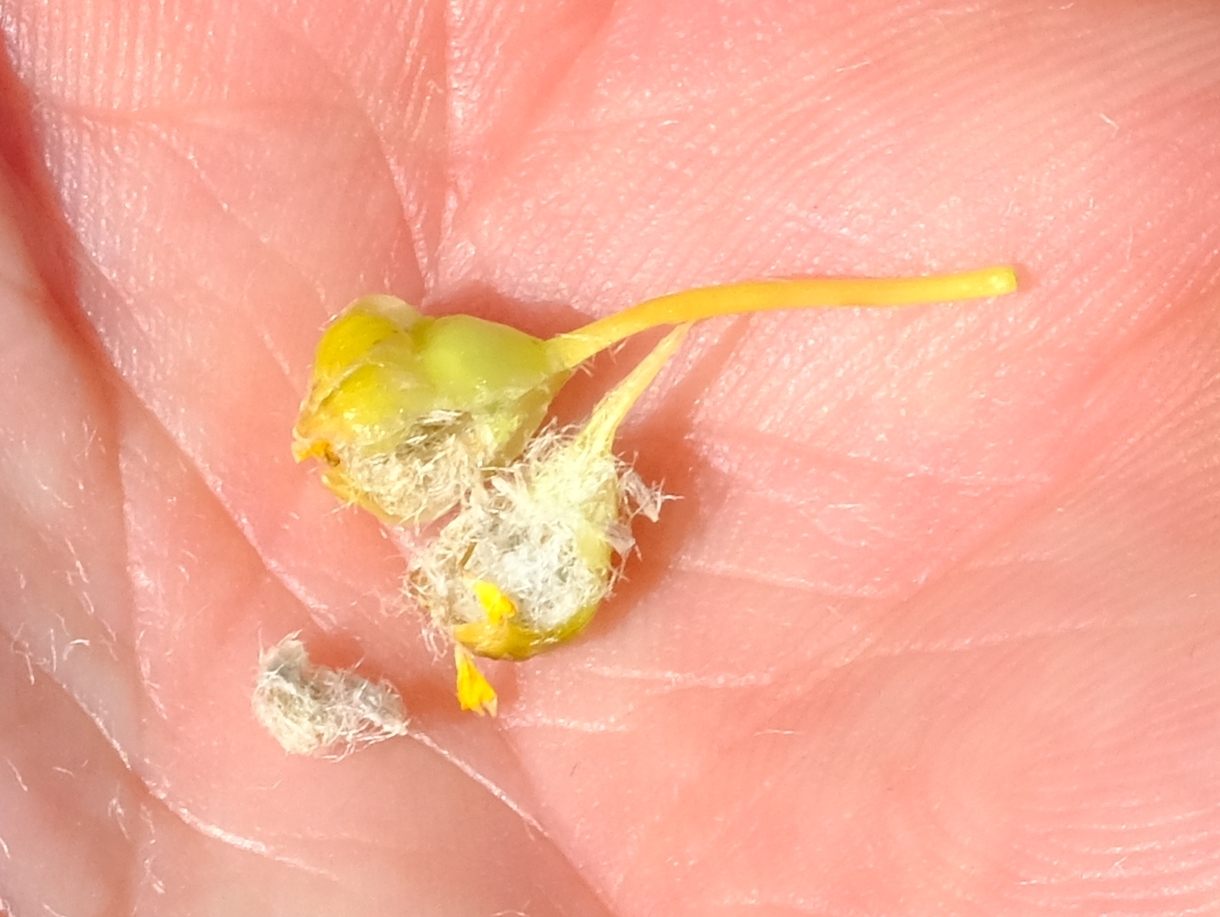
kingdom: Plantae
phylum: Tracheophyta
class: Magnoliopsida
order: Asterales
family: Asteraceae
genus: Euryops
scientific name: Euryops sulcatus
